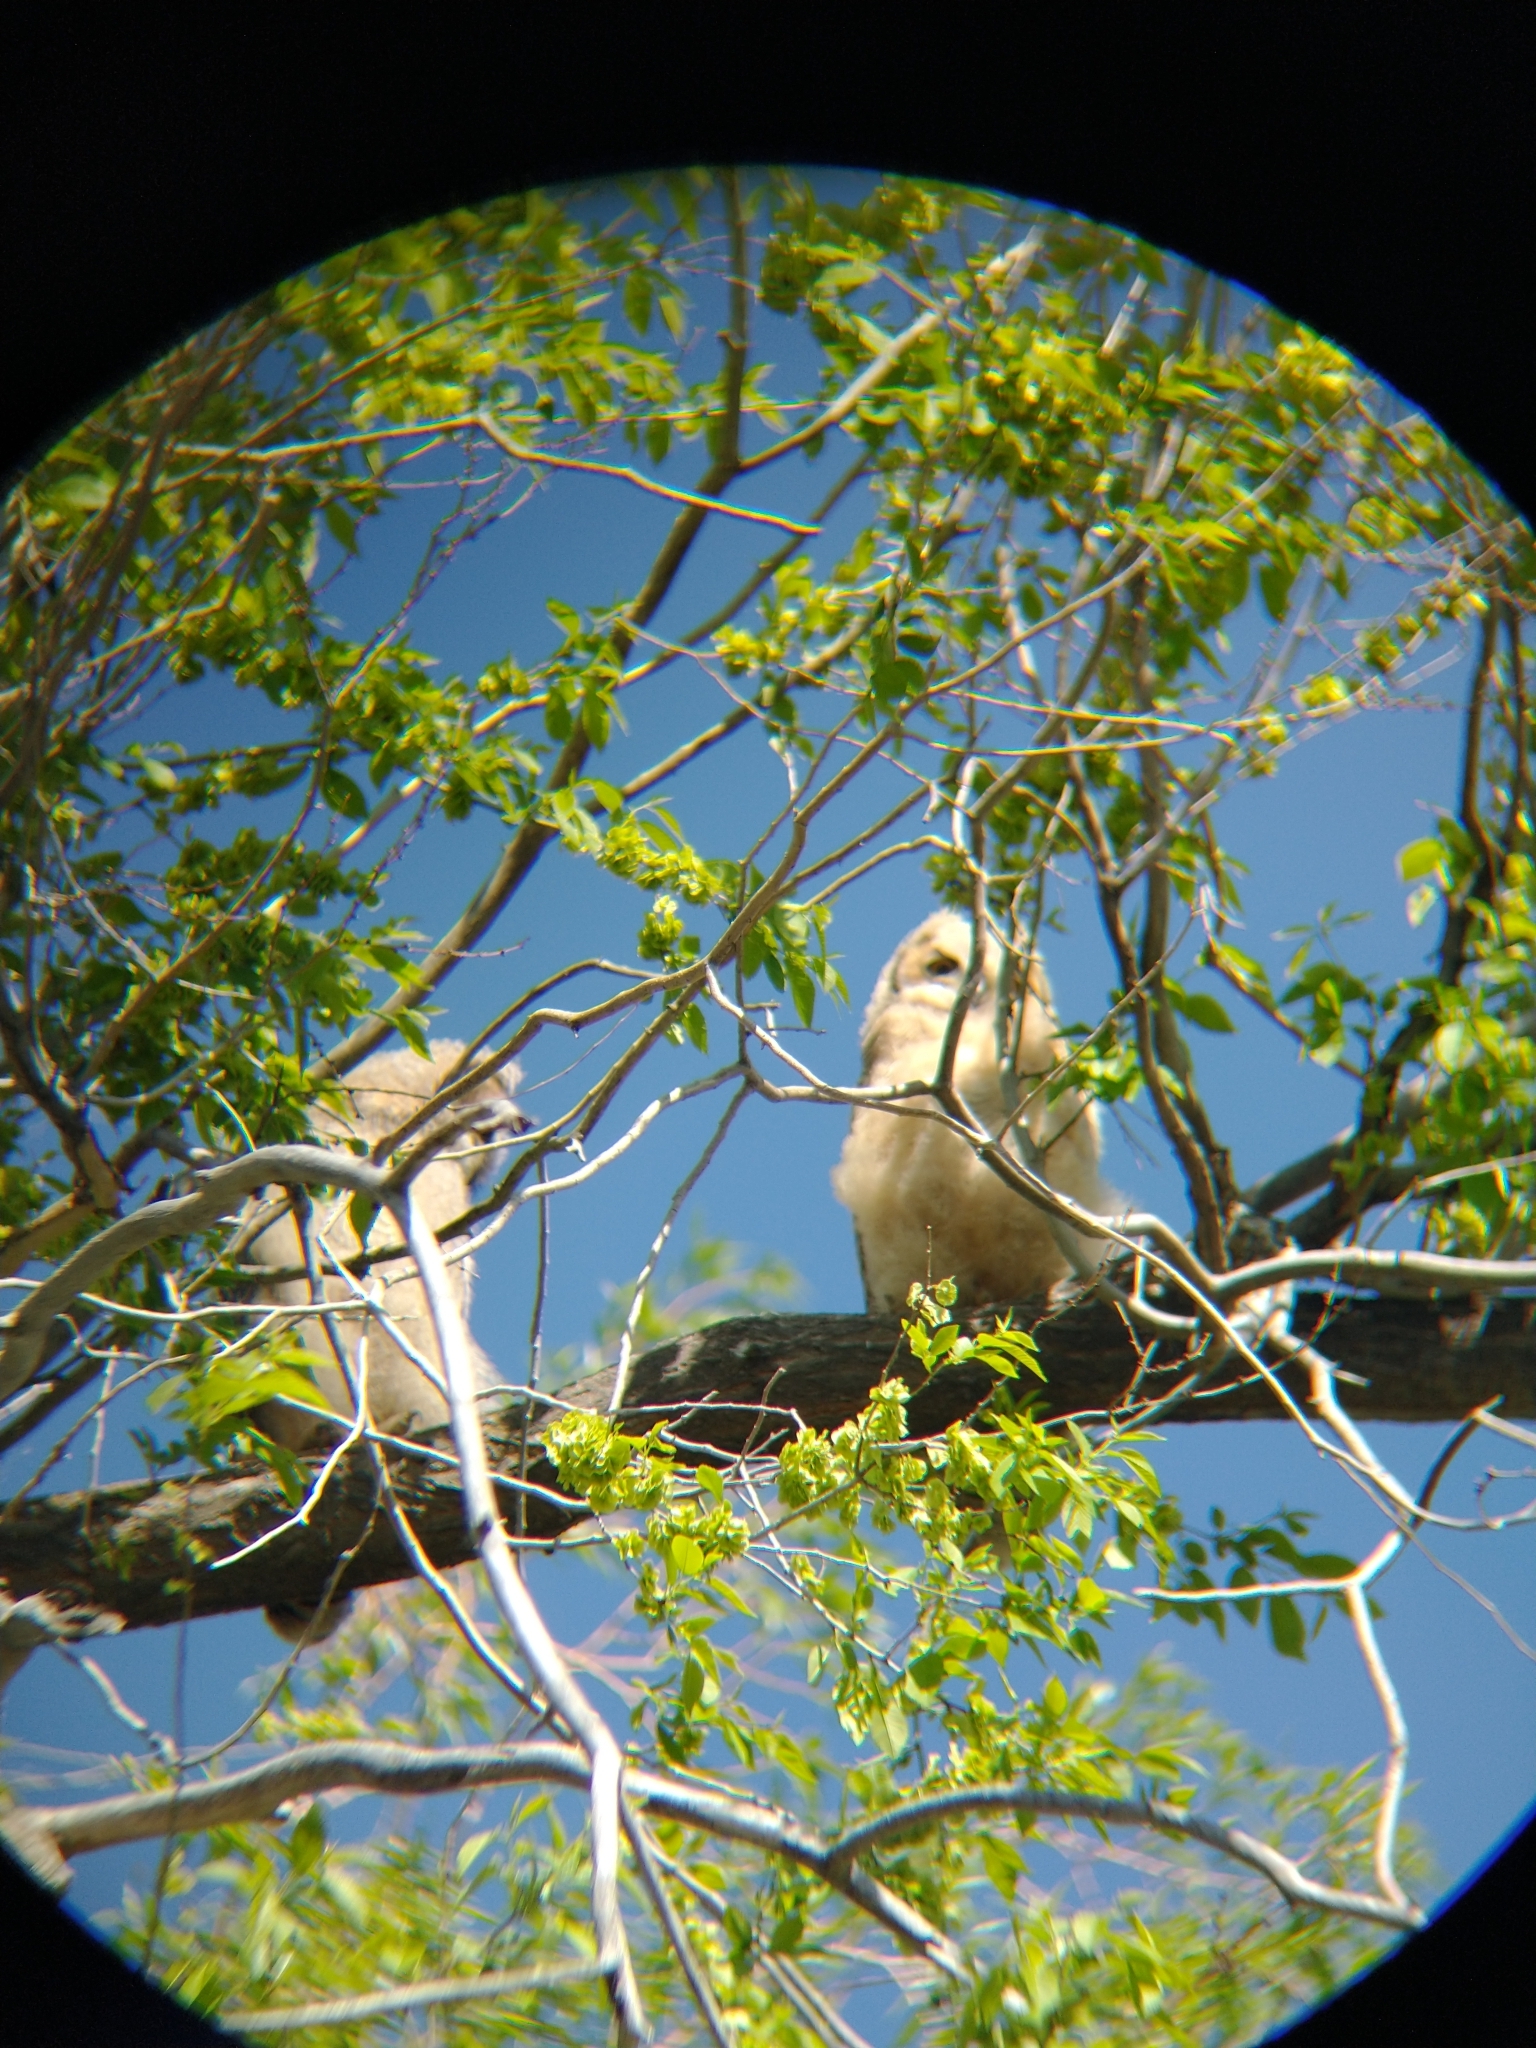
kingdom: Animalia
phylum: Chordata
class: Aves
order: Strigiformes
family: Strigidae
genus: Bubo
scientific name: Bubo virginianus
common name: Great horned owl
